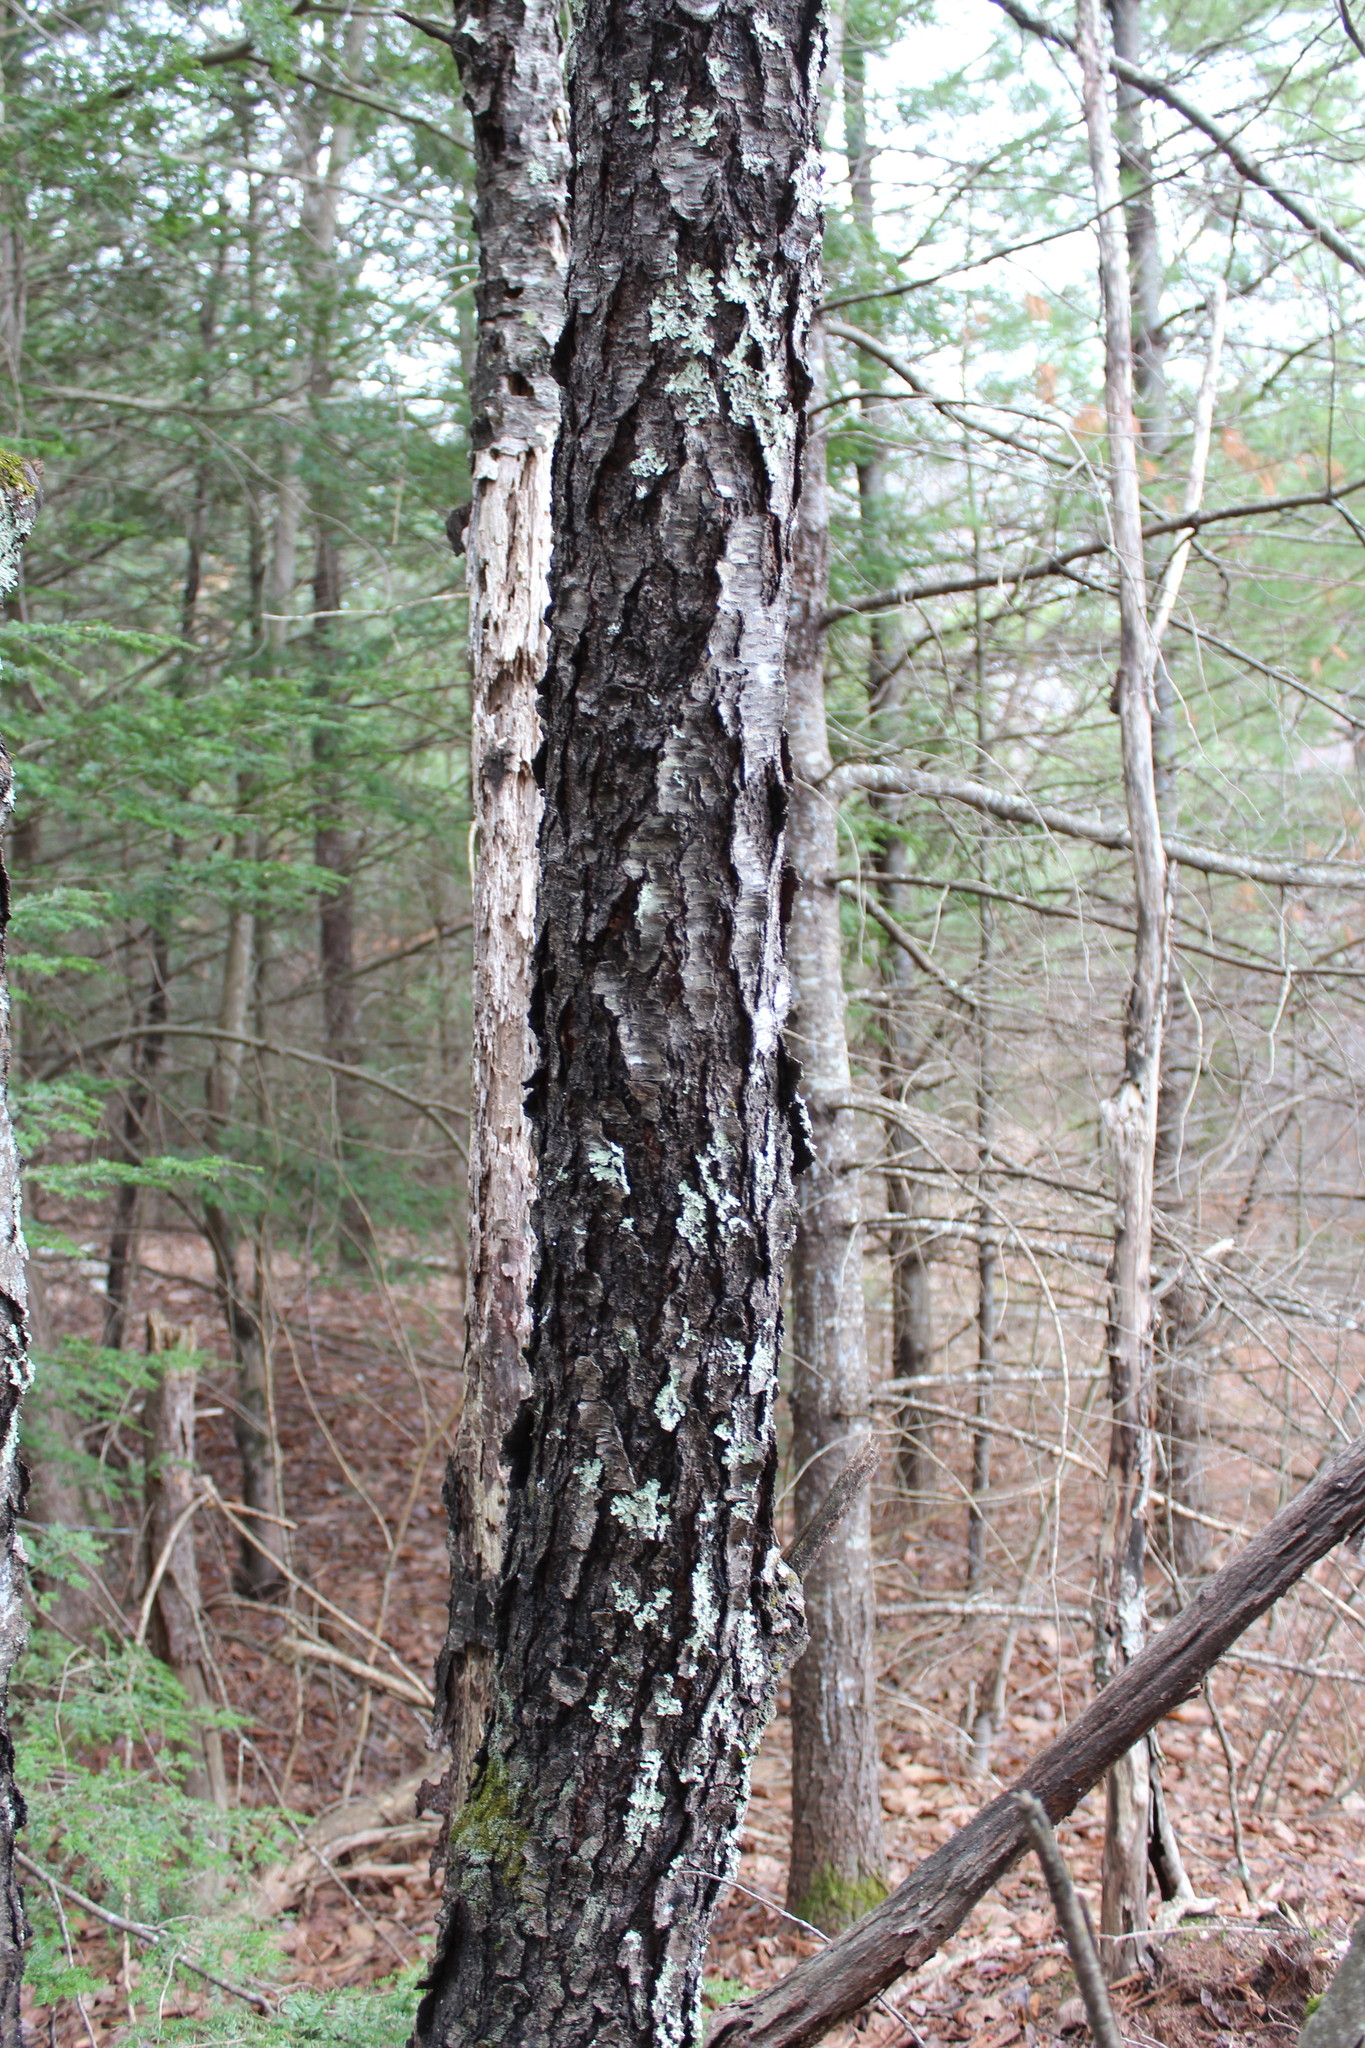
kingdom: Plantae
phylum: Tracheophyta
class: Magnoliopsida
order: Rosales
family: Rosaceae
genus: Prunus
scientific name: Prunus serotina
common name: Black cherry
